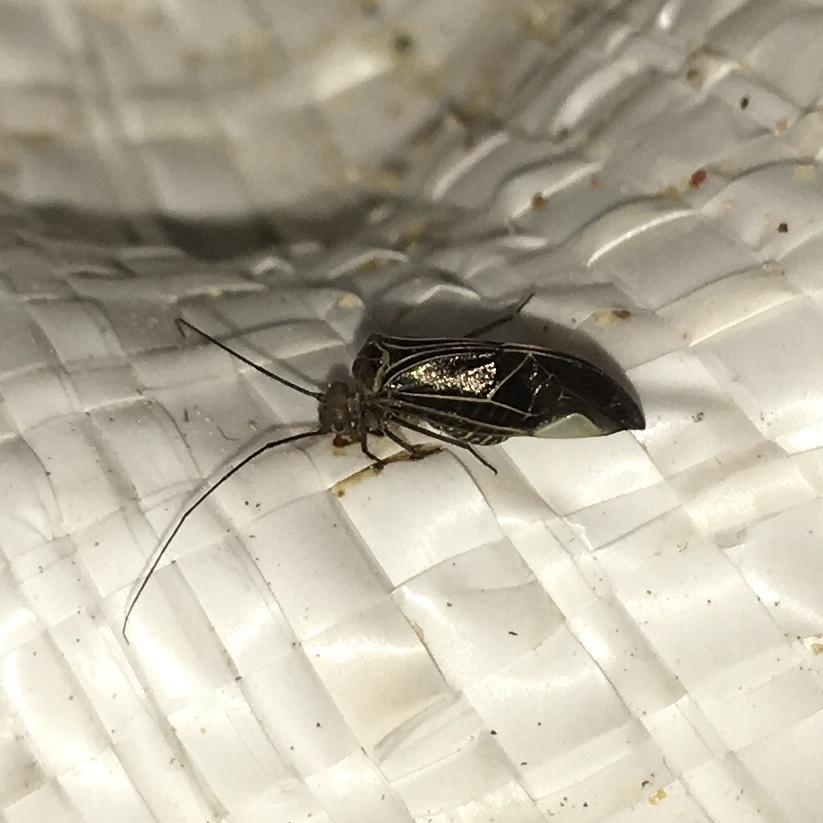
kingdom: Animalia
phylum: Arthropoda
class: Insecta
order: Psocodea
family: Psocidae
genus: Cerastipsocus
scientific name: Cerastipsocus venosus
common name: Tree cattle
